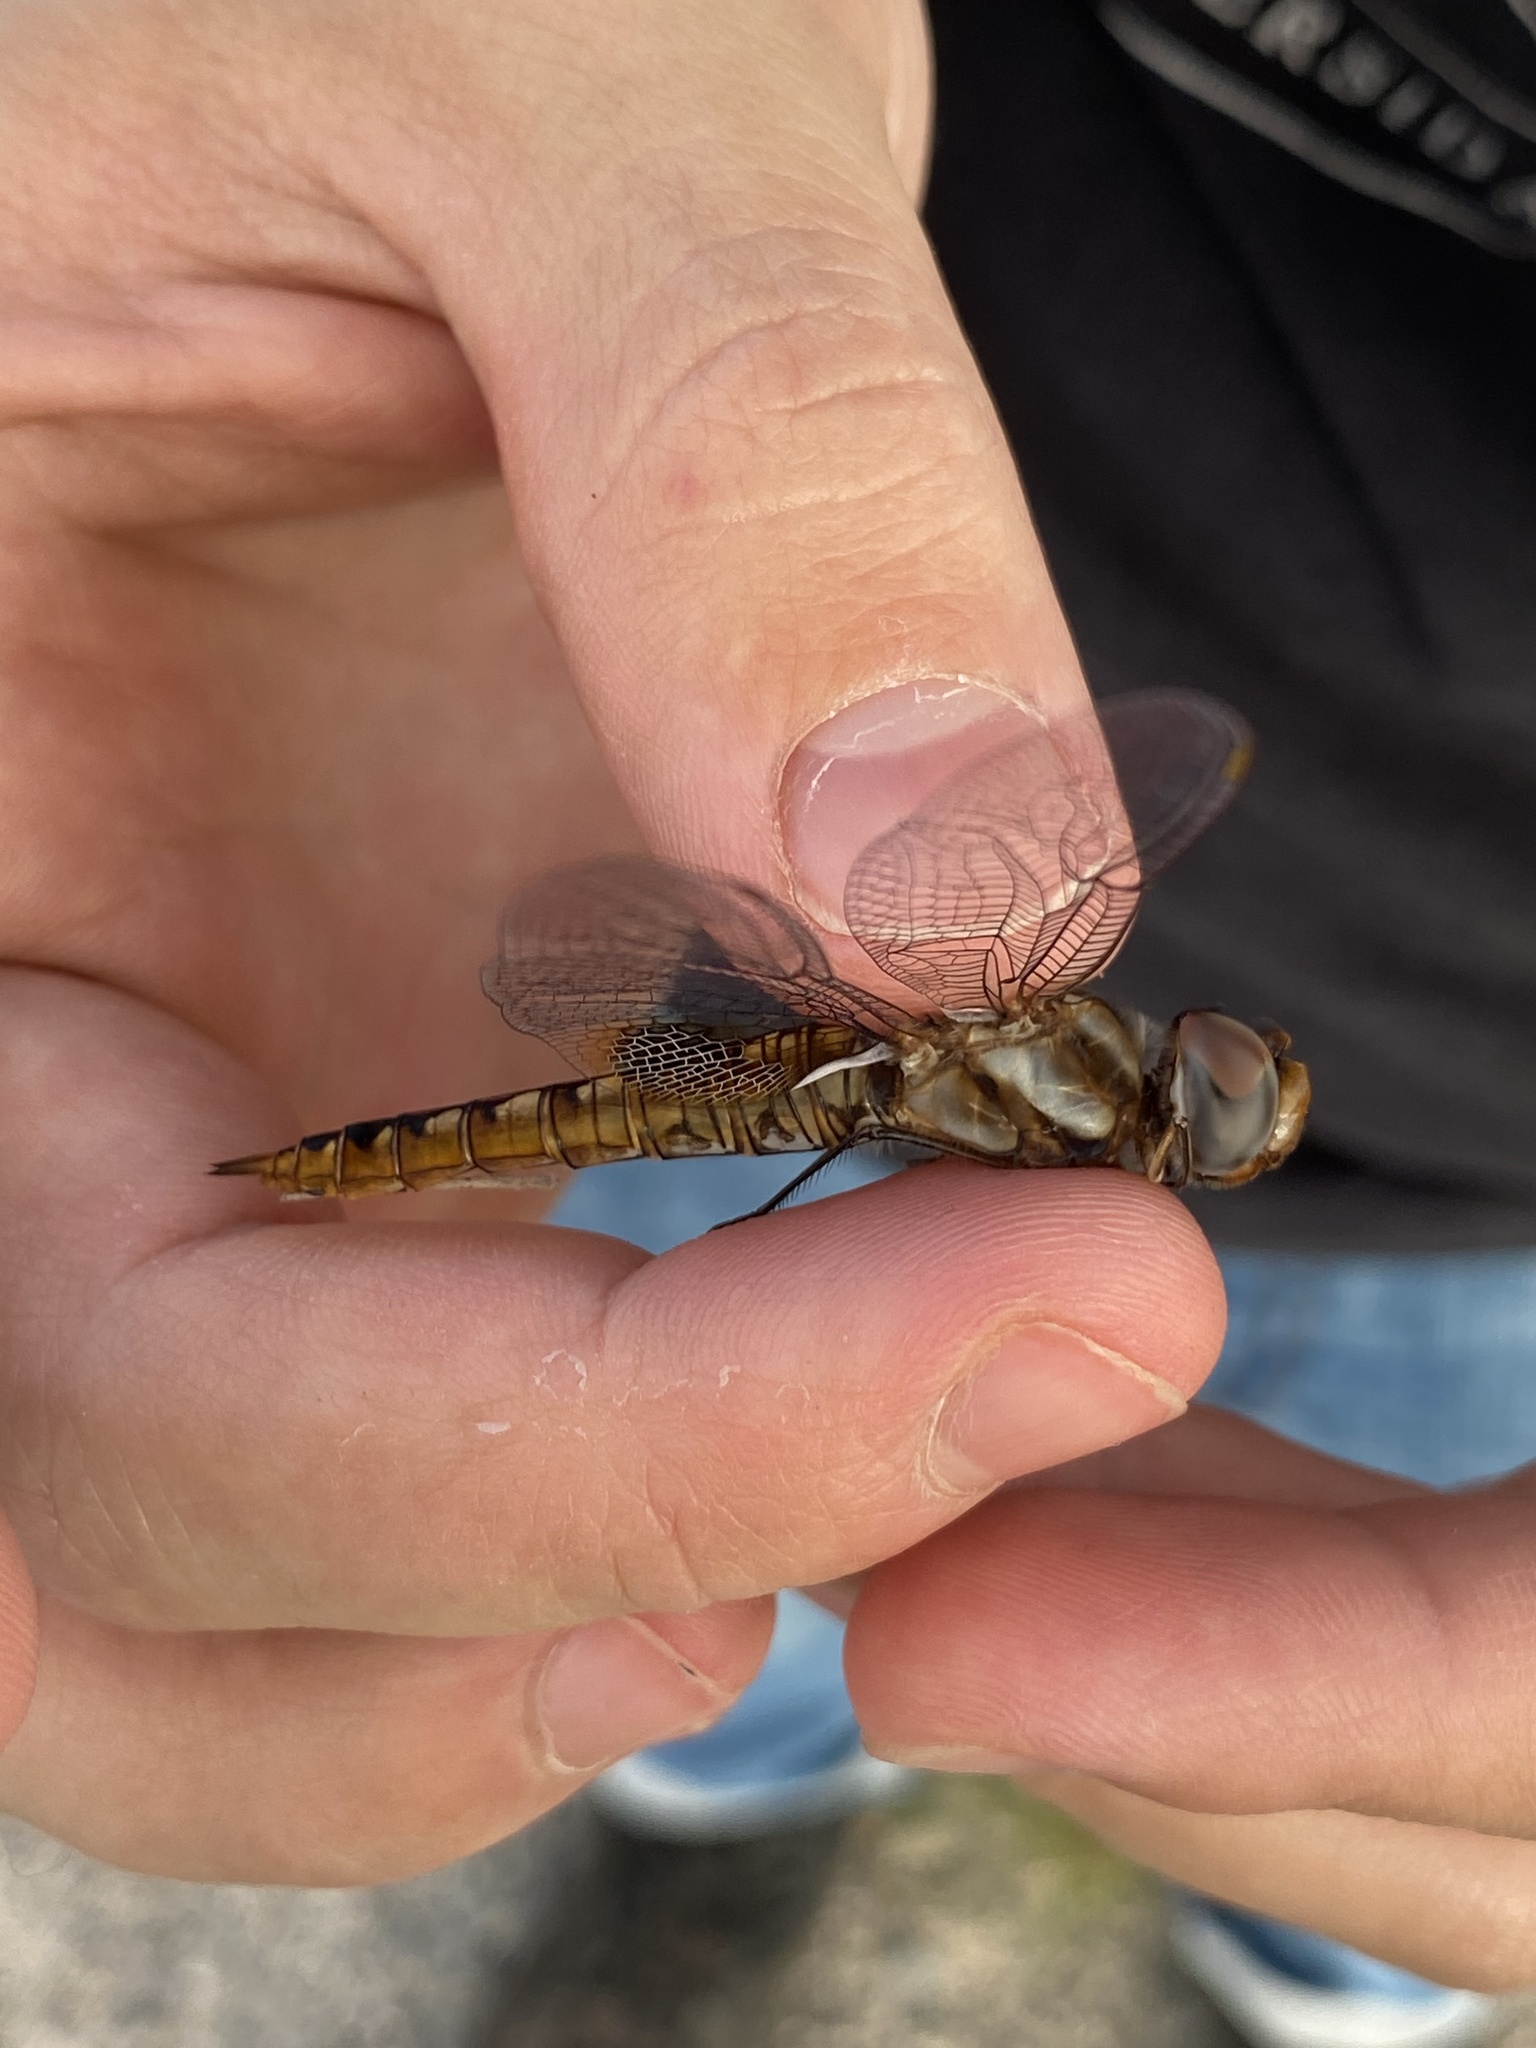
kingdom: Animalia
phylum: Arthropoda
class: Insecta
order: Odonata
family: Libellulidae
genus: Pantala
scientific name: Pantala hymenaea
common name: Spot-winged glider
